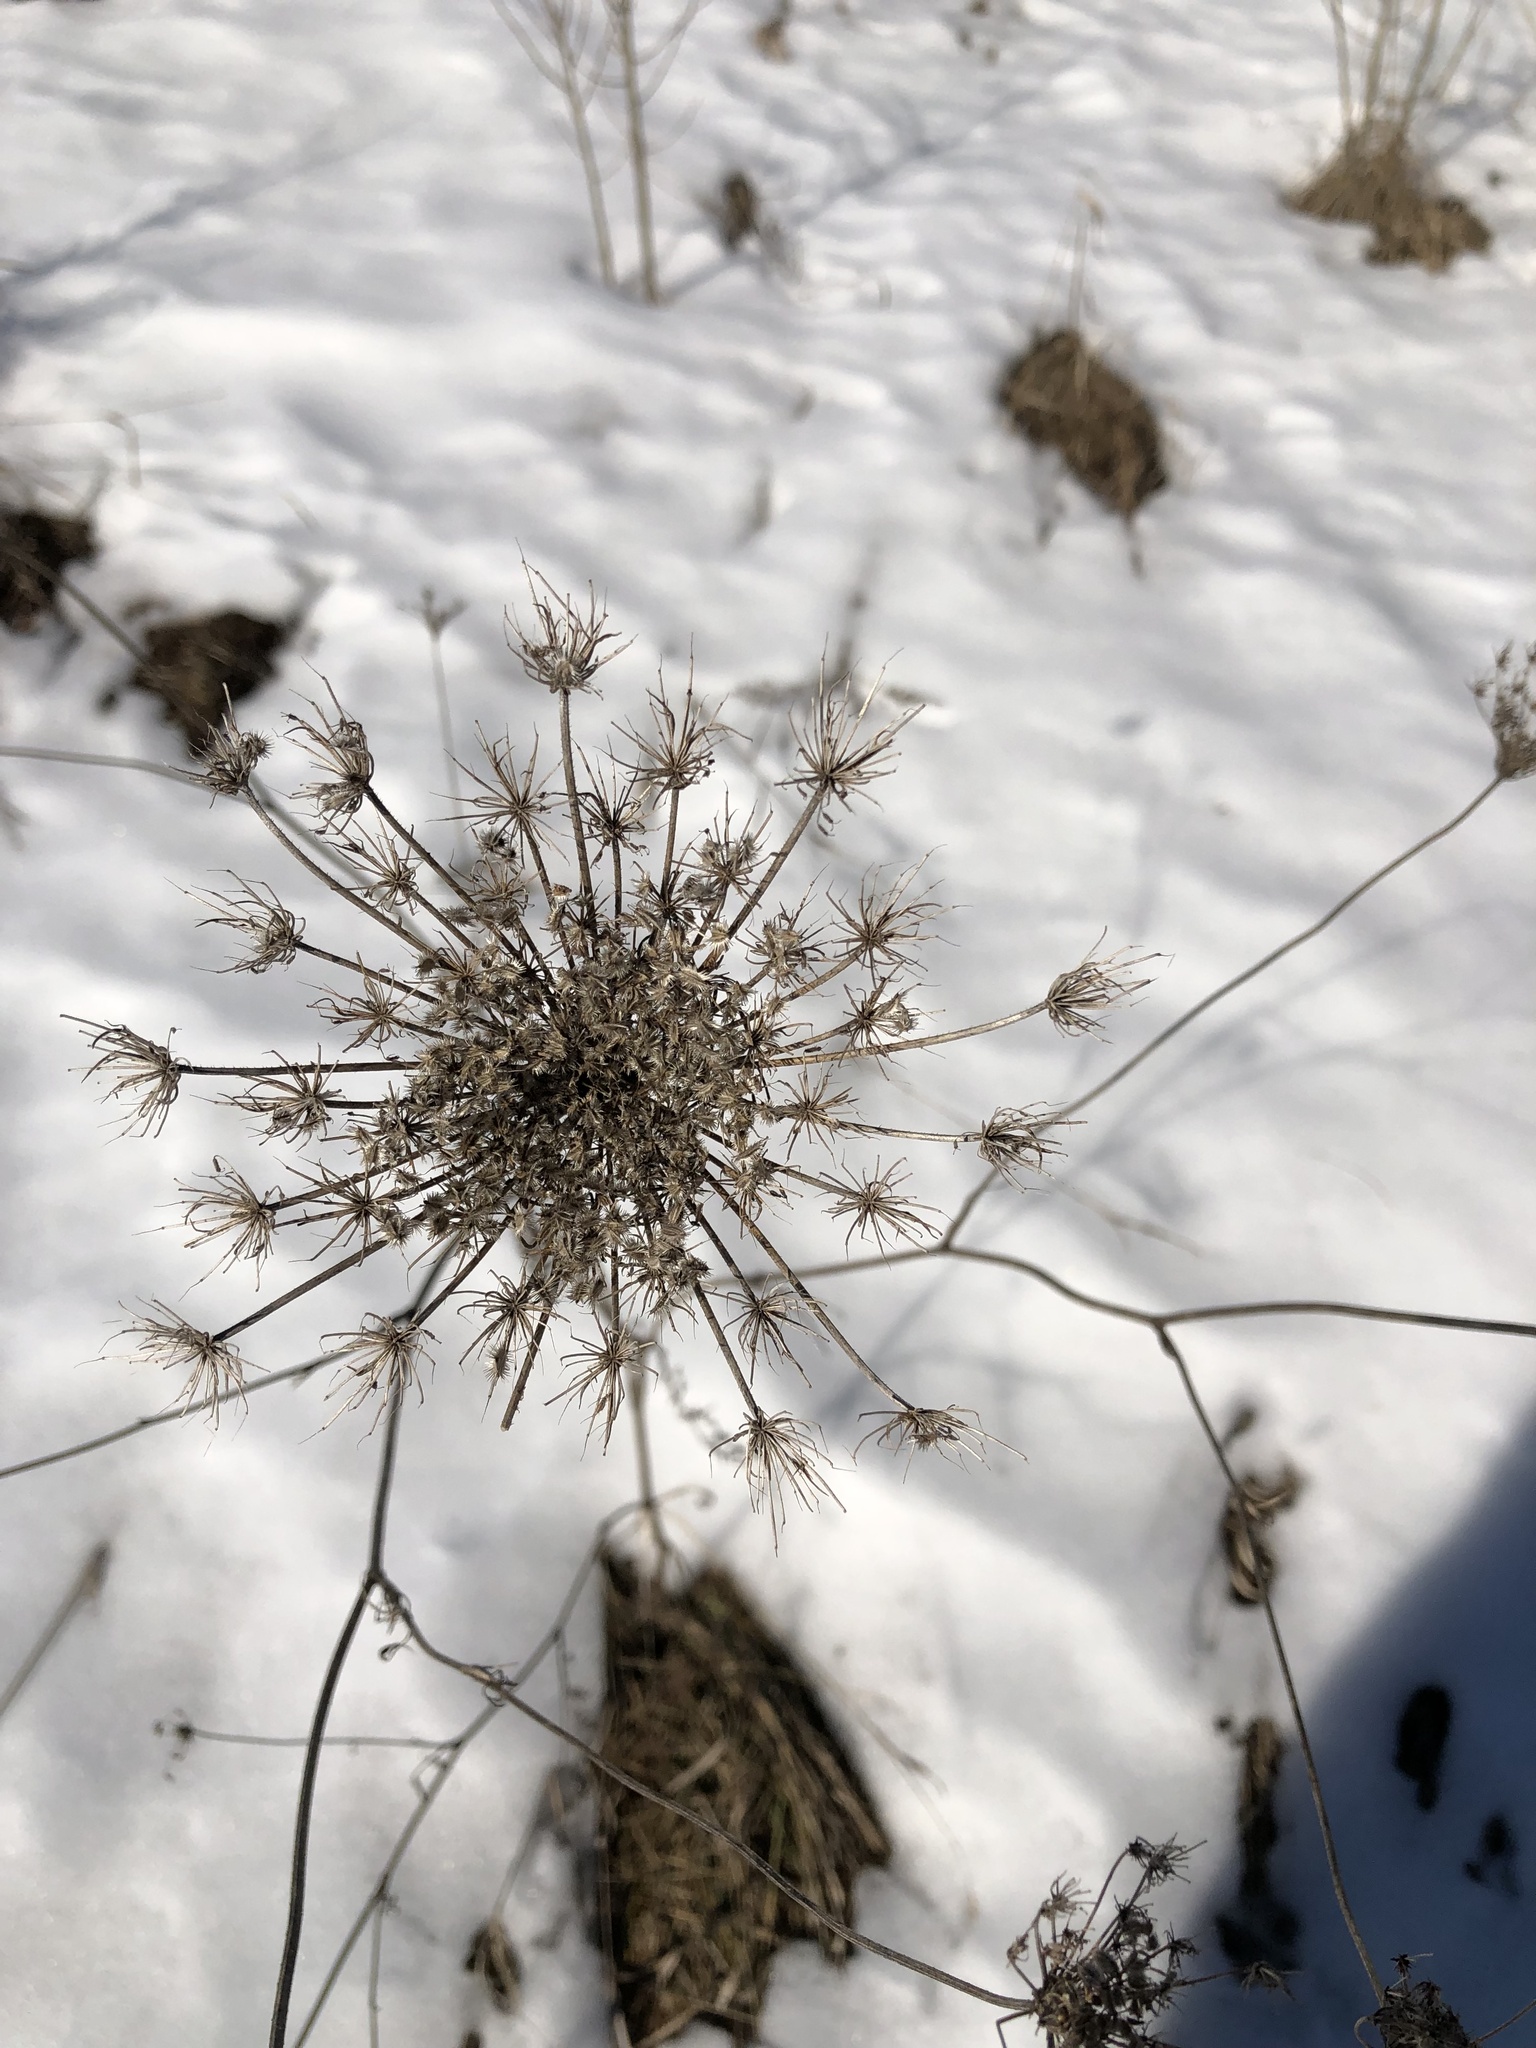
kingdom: Plantae
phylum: Tracheophyta
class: Magnoliopsida
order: Apiales
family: Apiaceae
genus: Daucus
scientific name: Daucus carota
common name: Wild carrot
